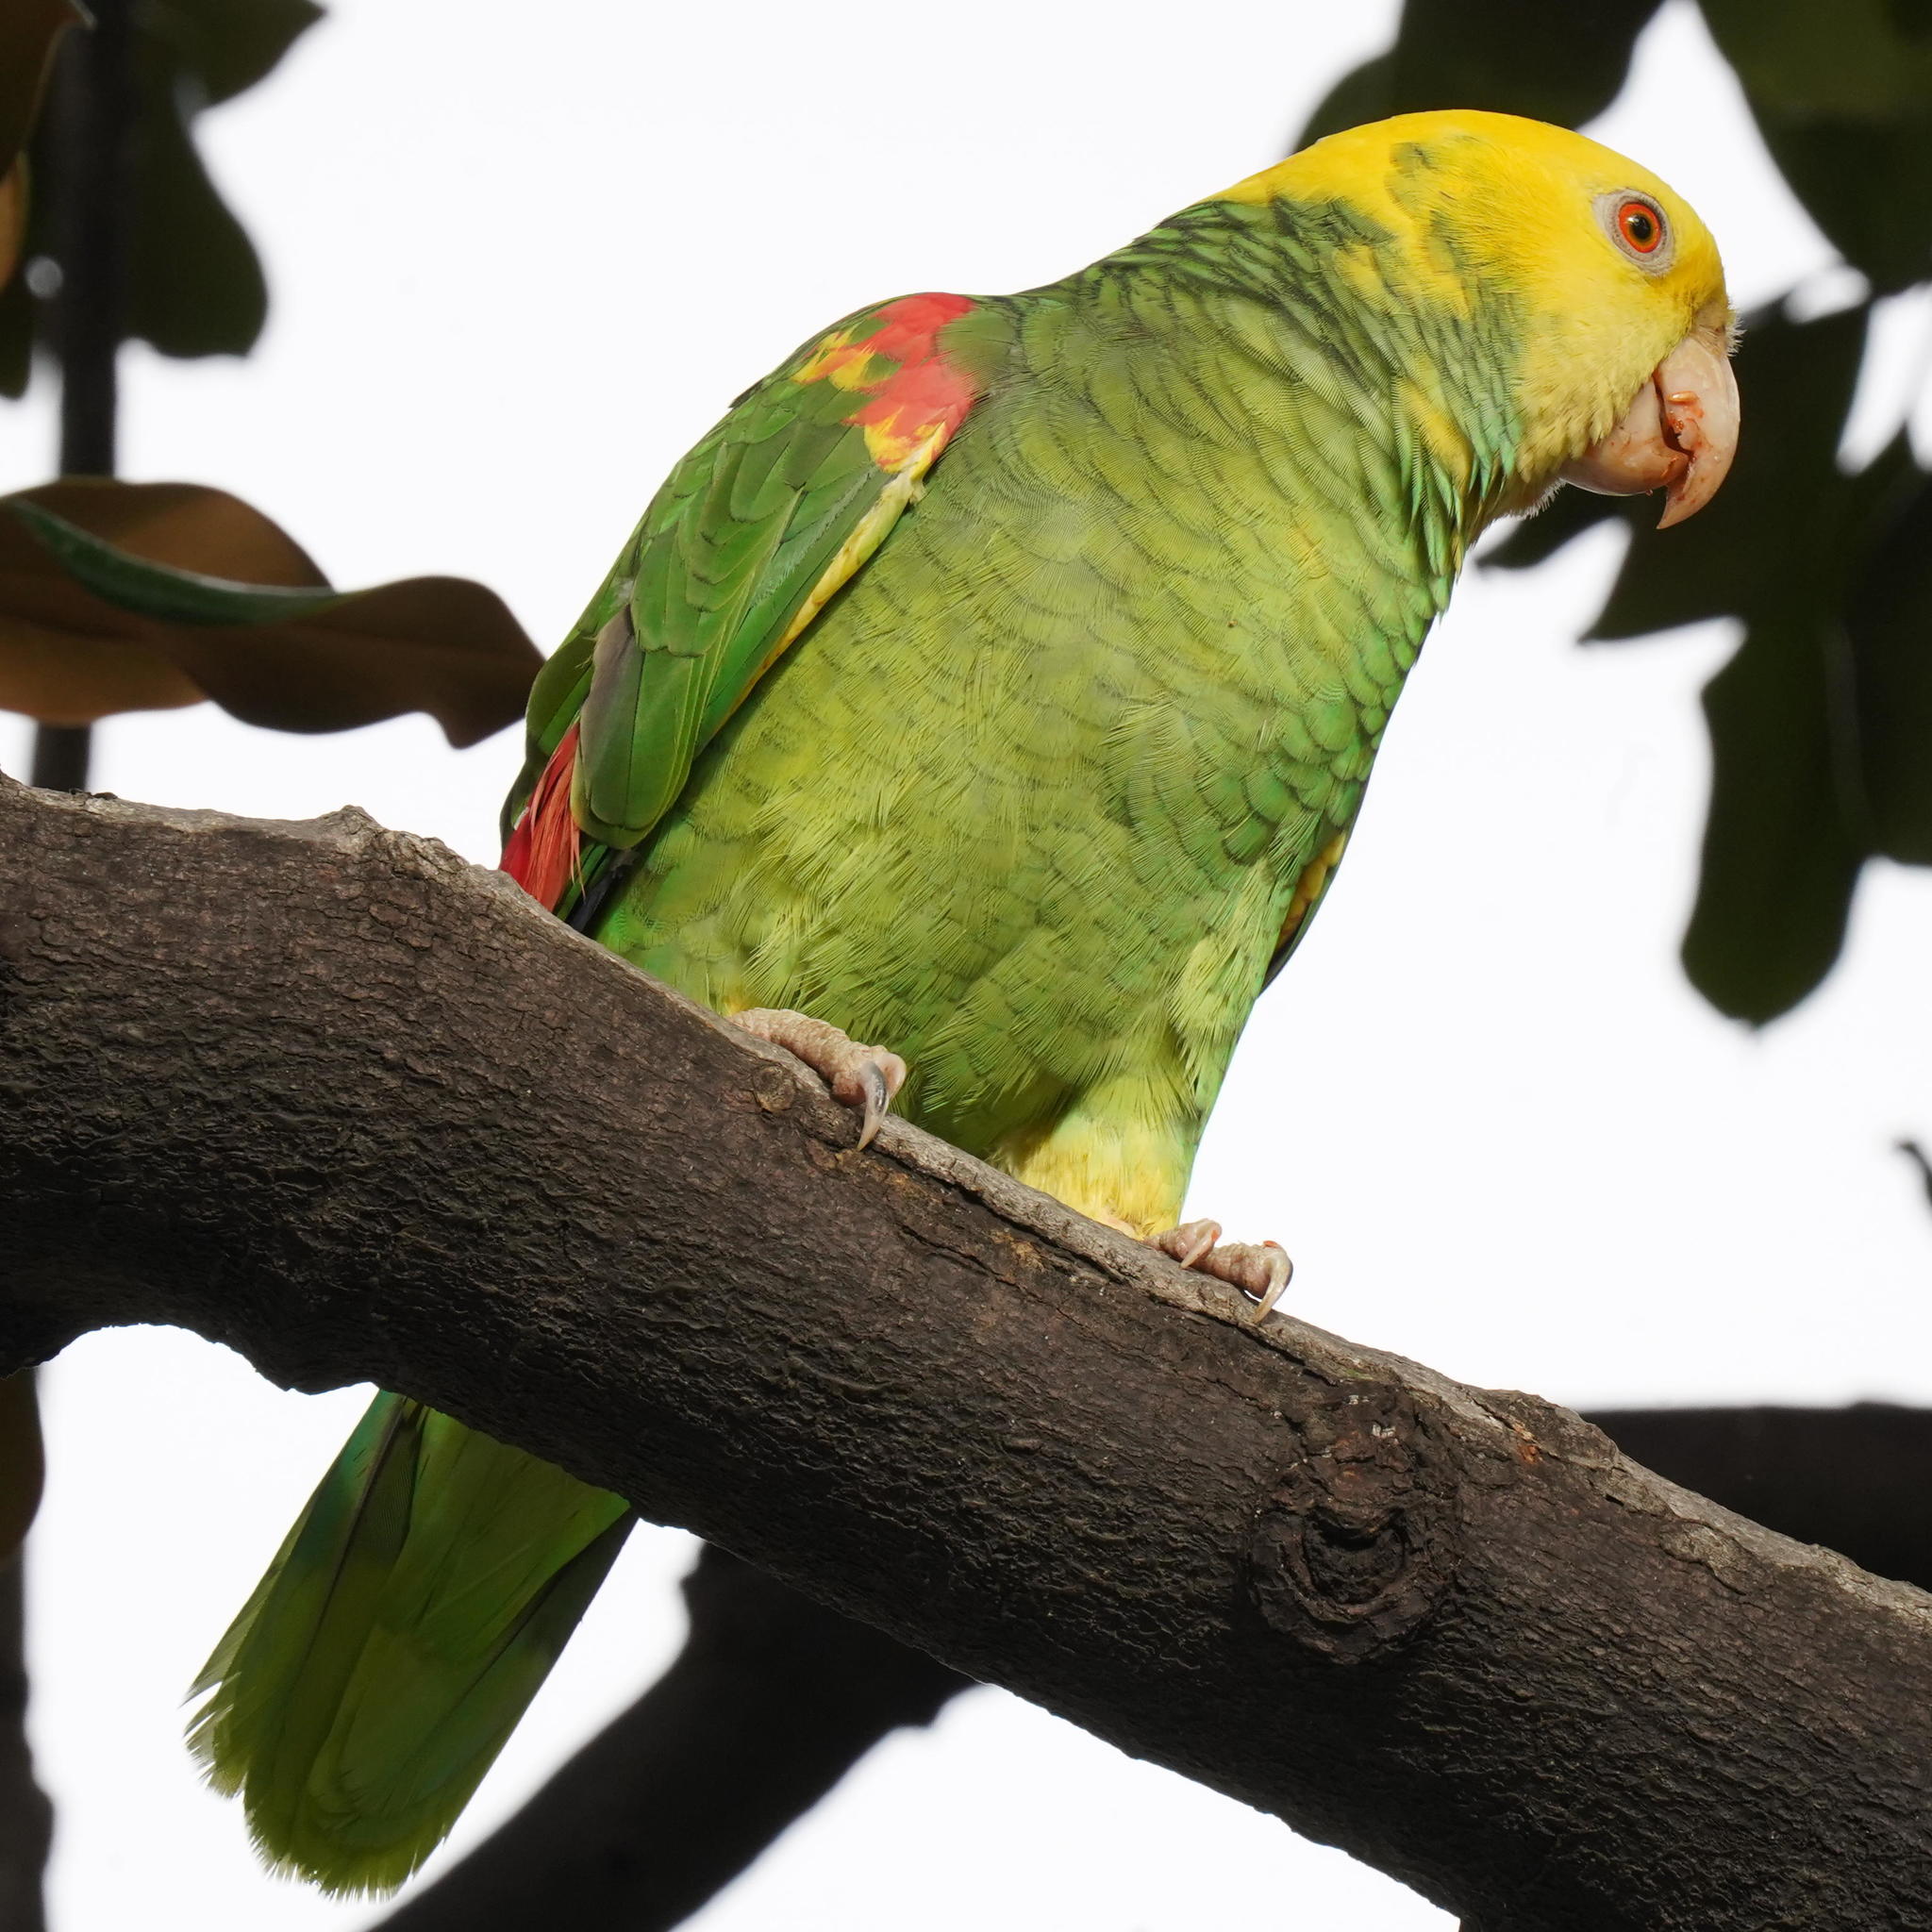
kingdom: Animalia
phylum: Chordata
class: Aves
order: Psittaciformes
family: Psittacidae
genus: Amazona
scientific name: Amazona oratrix
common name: Yellow-headed amazon
